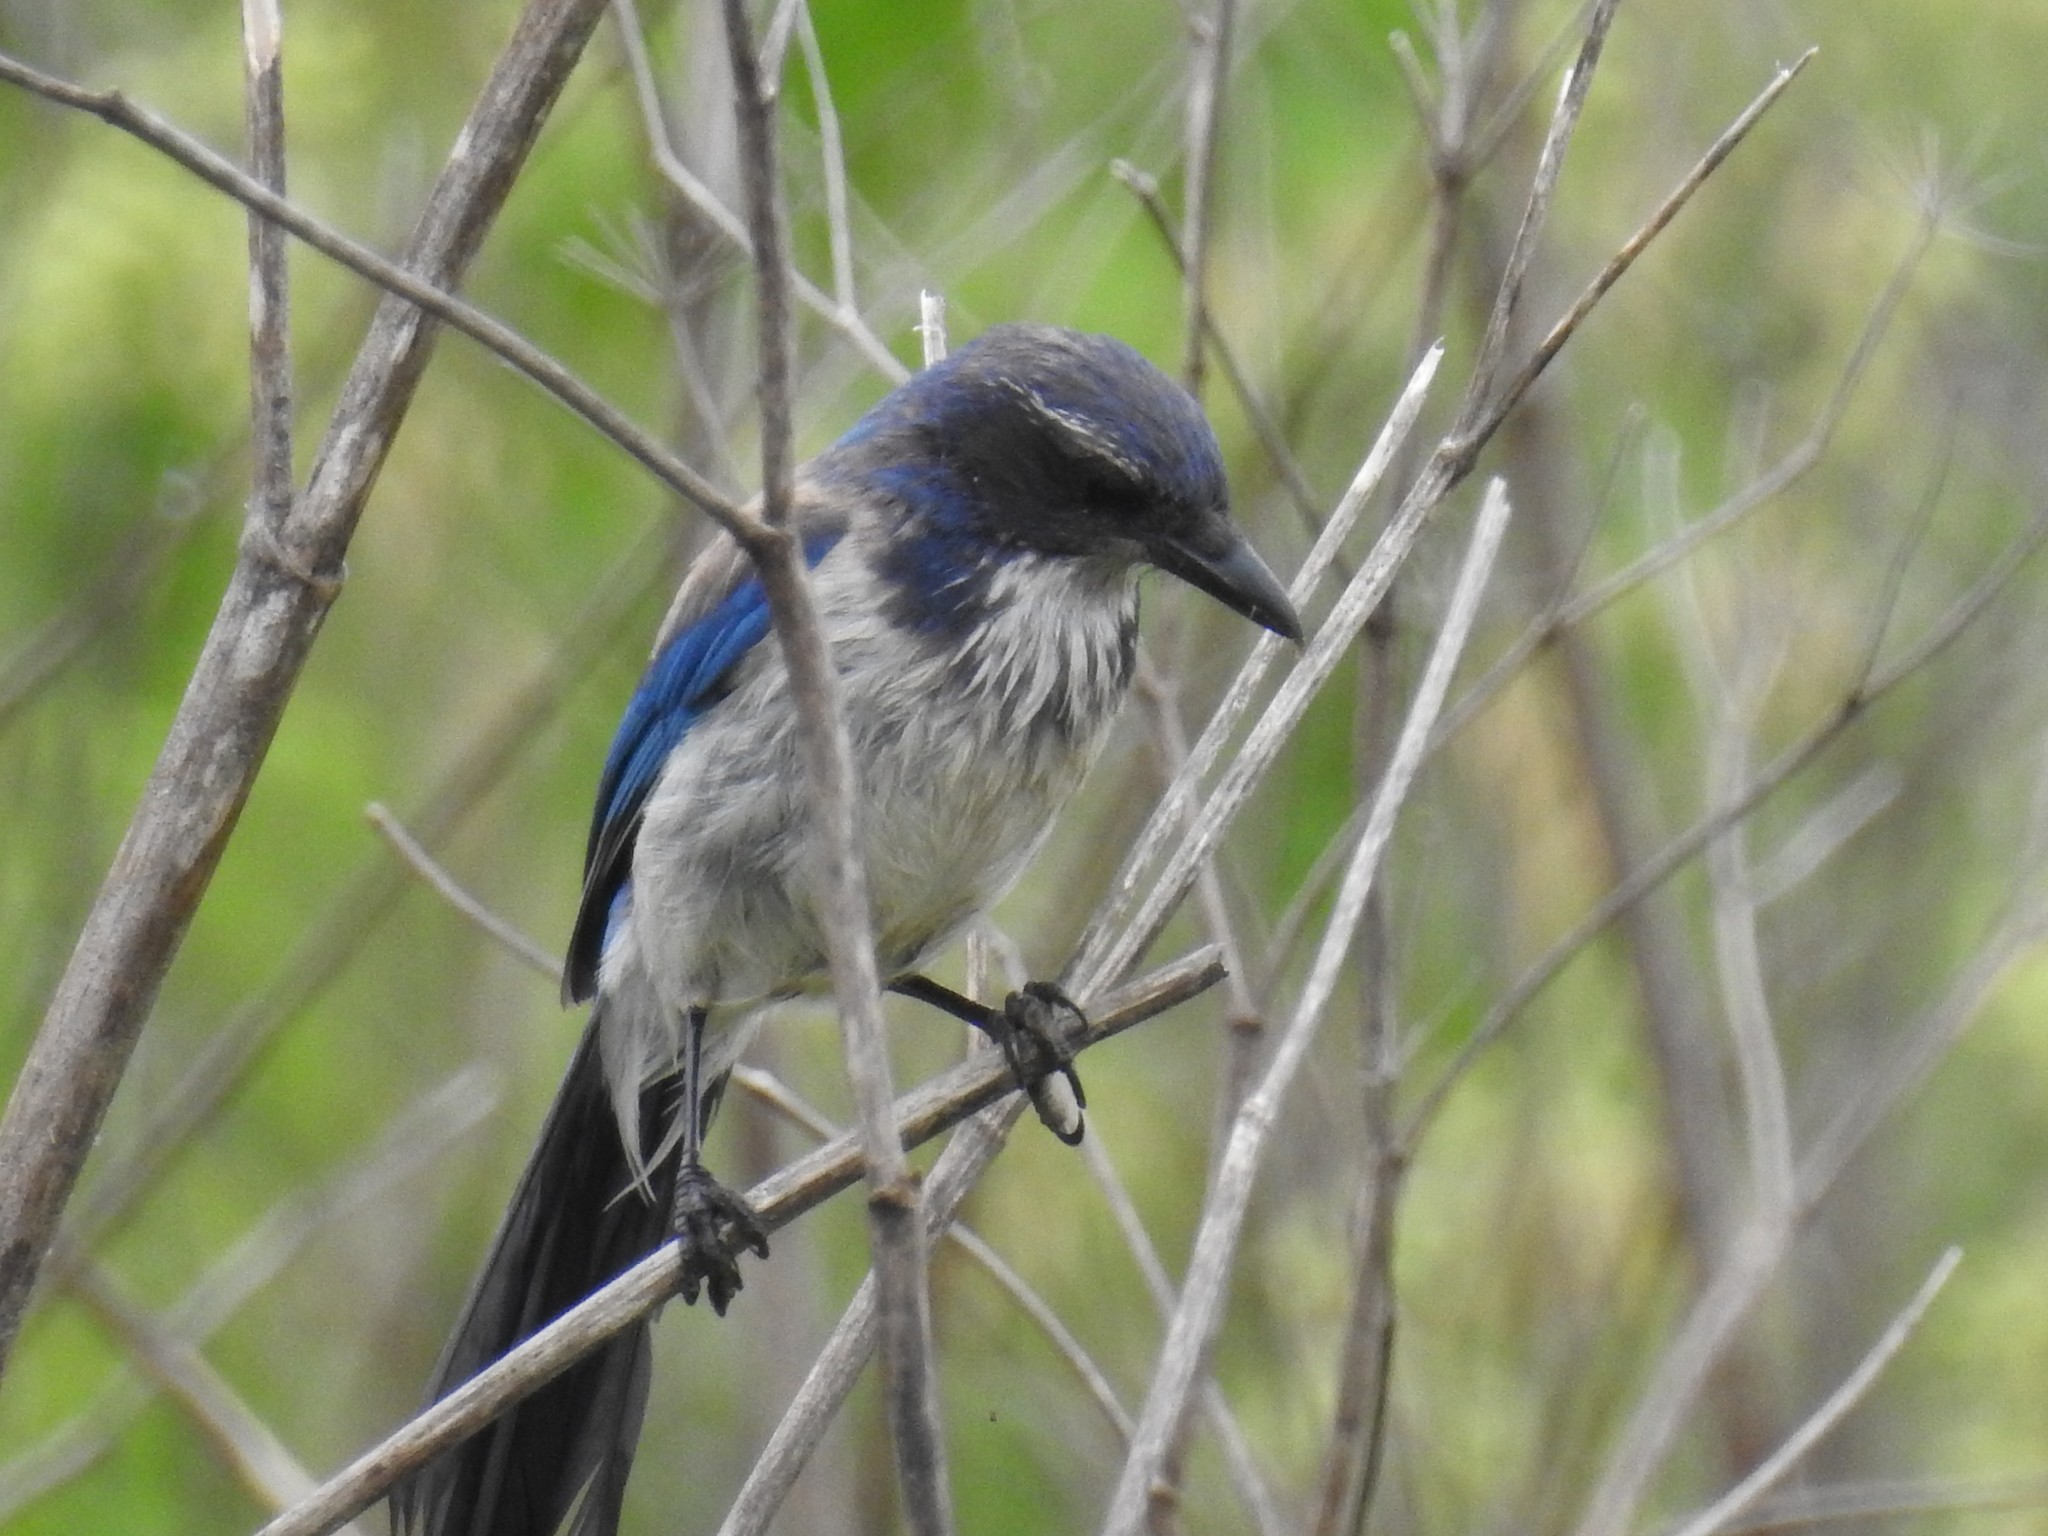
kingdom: Animalia
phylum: Chordata
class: Aves
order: Passeriformes
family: Corvidae
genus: Aphelocoma
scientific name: Aphelocoma californica
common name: California scrub-jay
